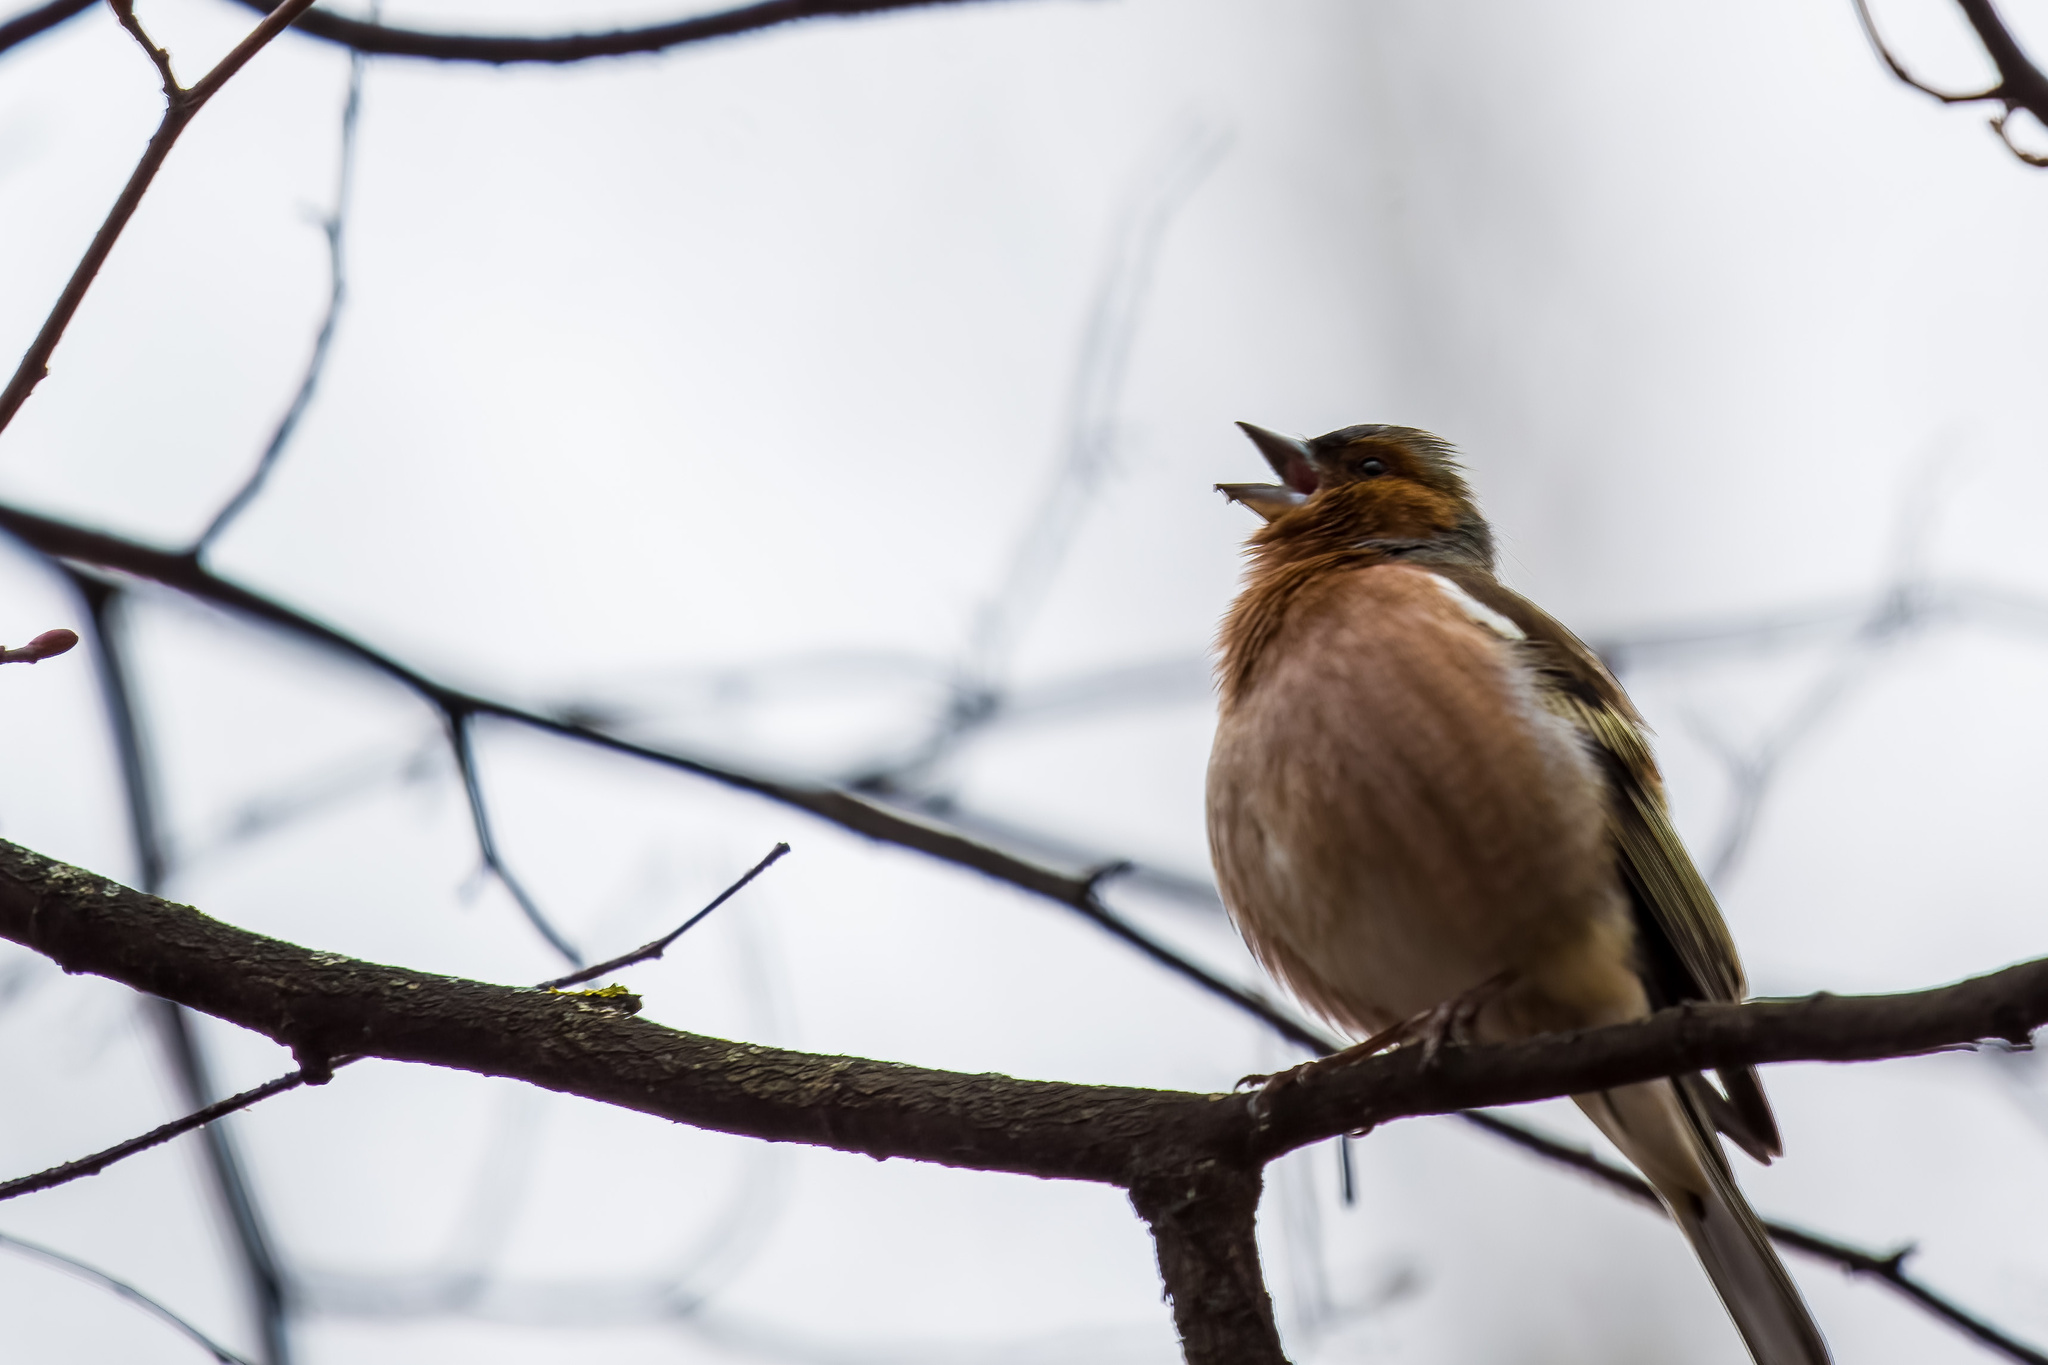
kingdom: Animalia
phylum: Chordata
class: Aves
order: Passeriformes
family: Fringillidae
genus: Fringilla
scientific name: Fringilla coelebs
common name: Common chaffinch
